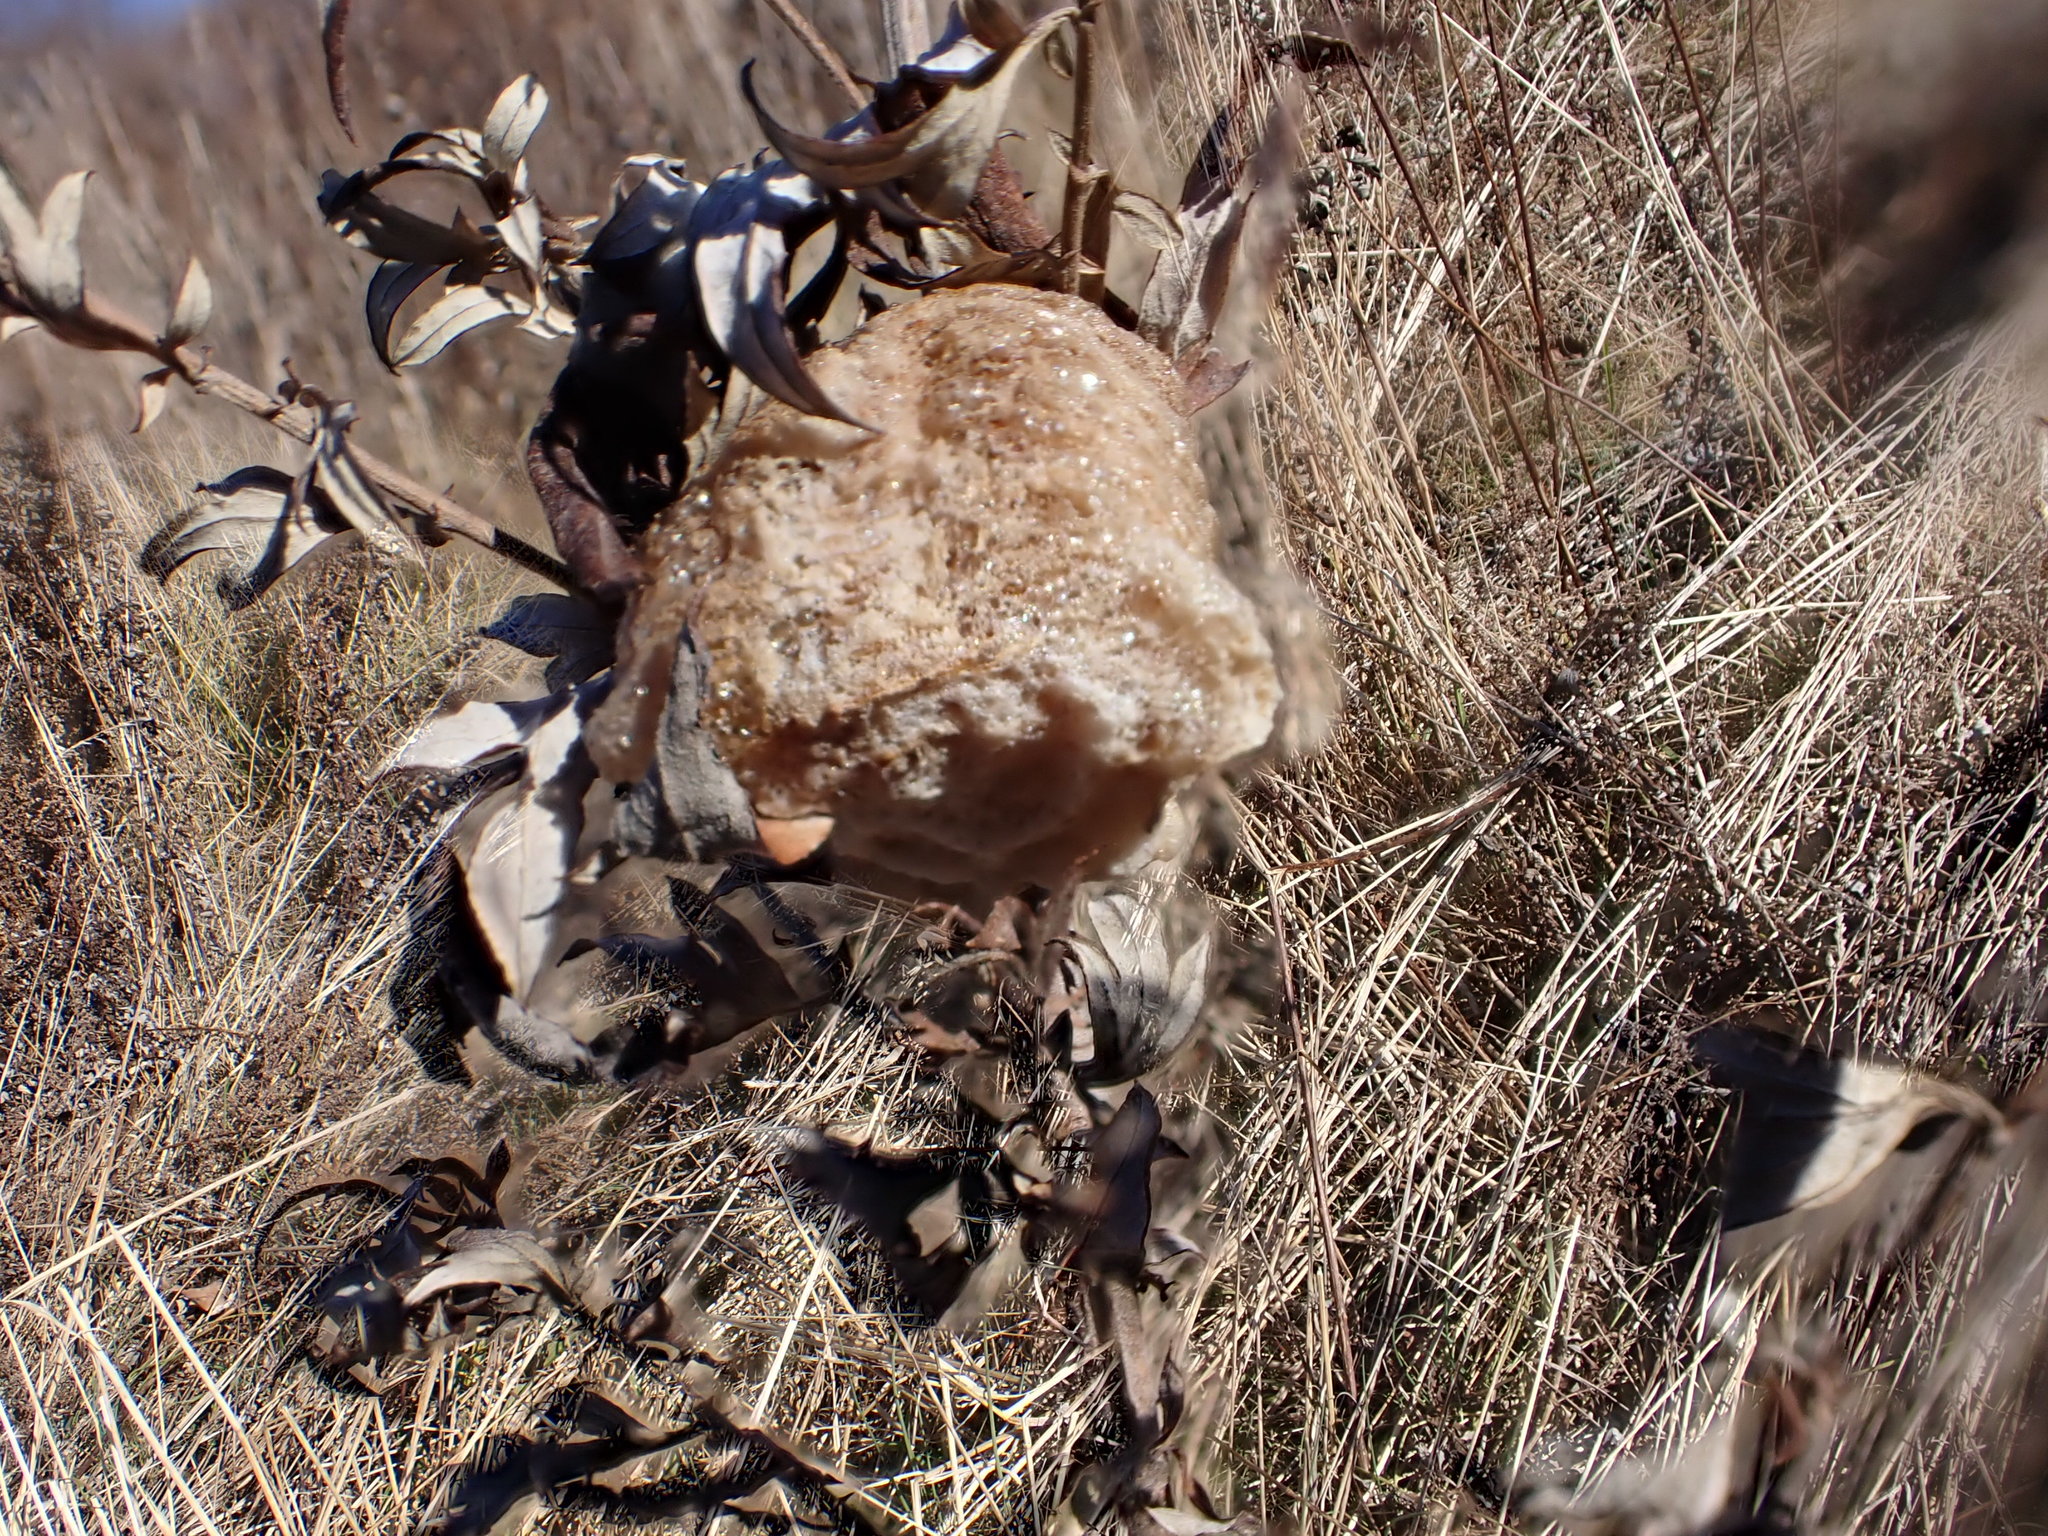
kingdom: Animalia
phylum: Arthropoda
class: Insecta
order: Mantodea
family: Mantidae
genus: Tenodera
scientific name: Tenodera sinensis
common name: Chinese mantis
